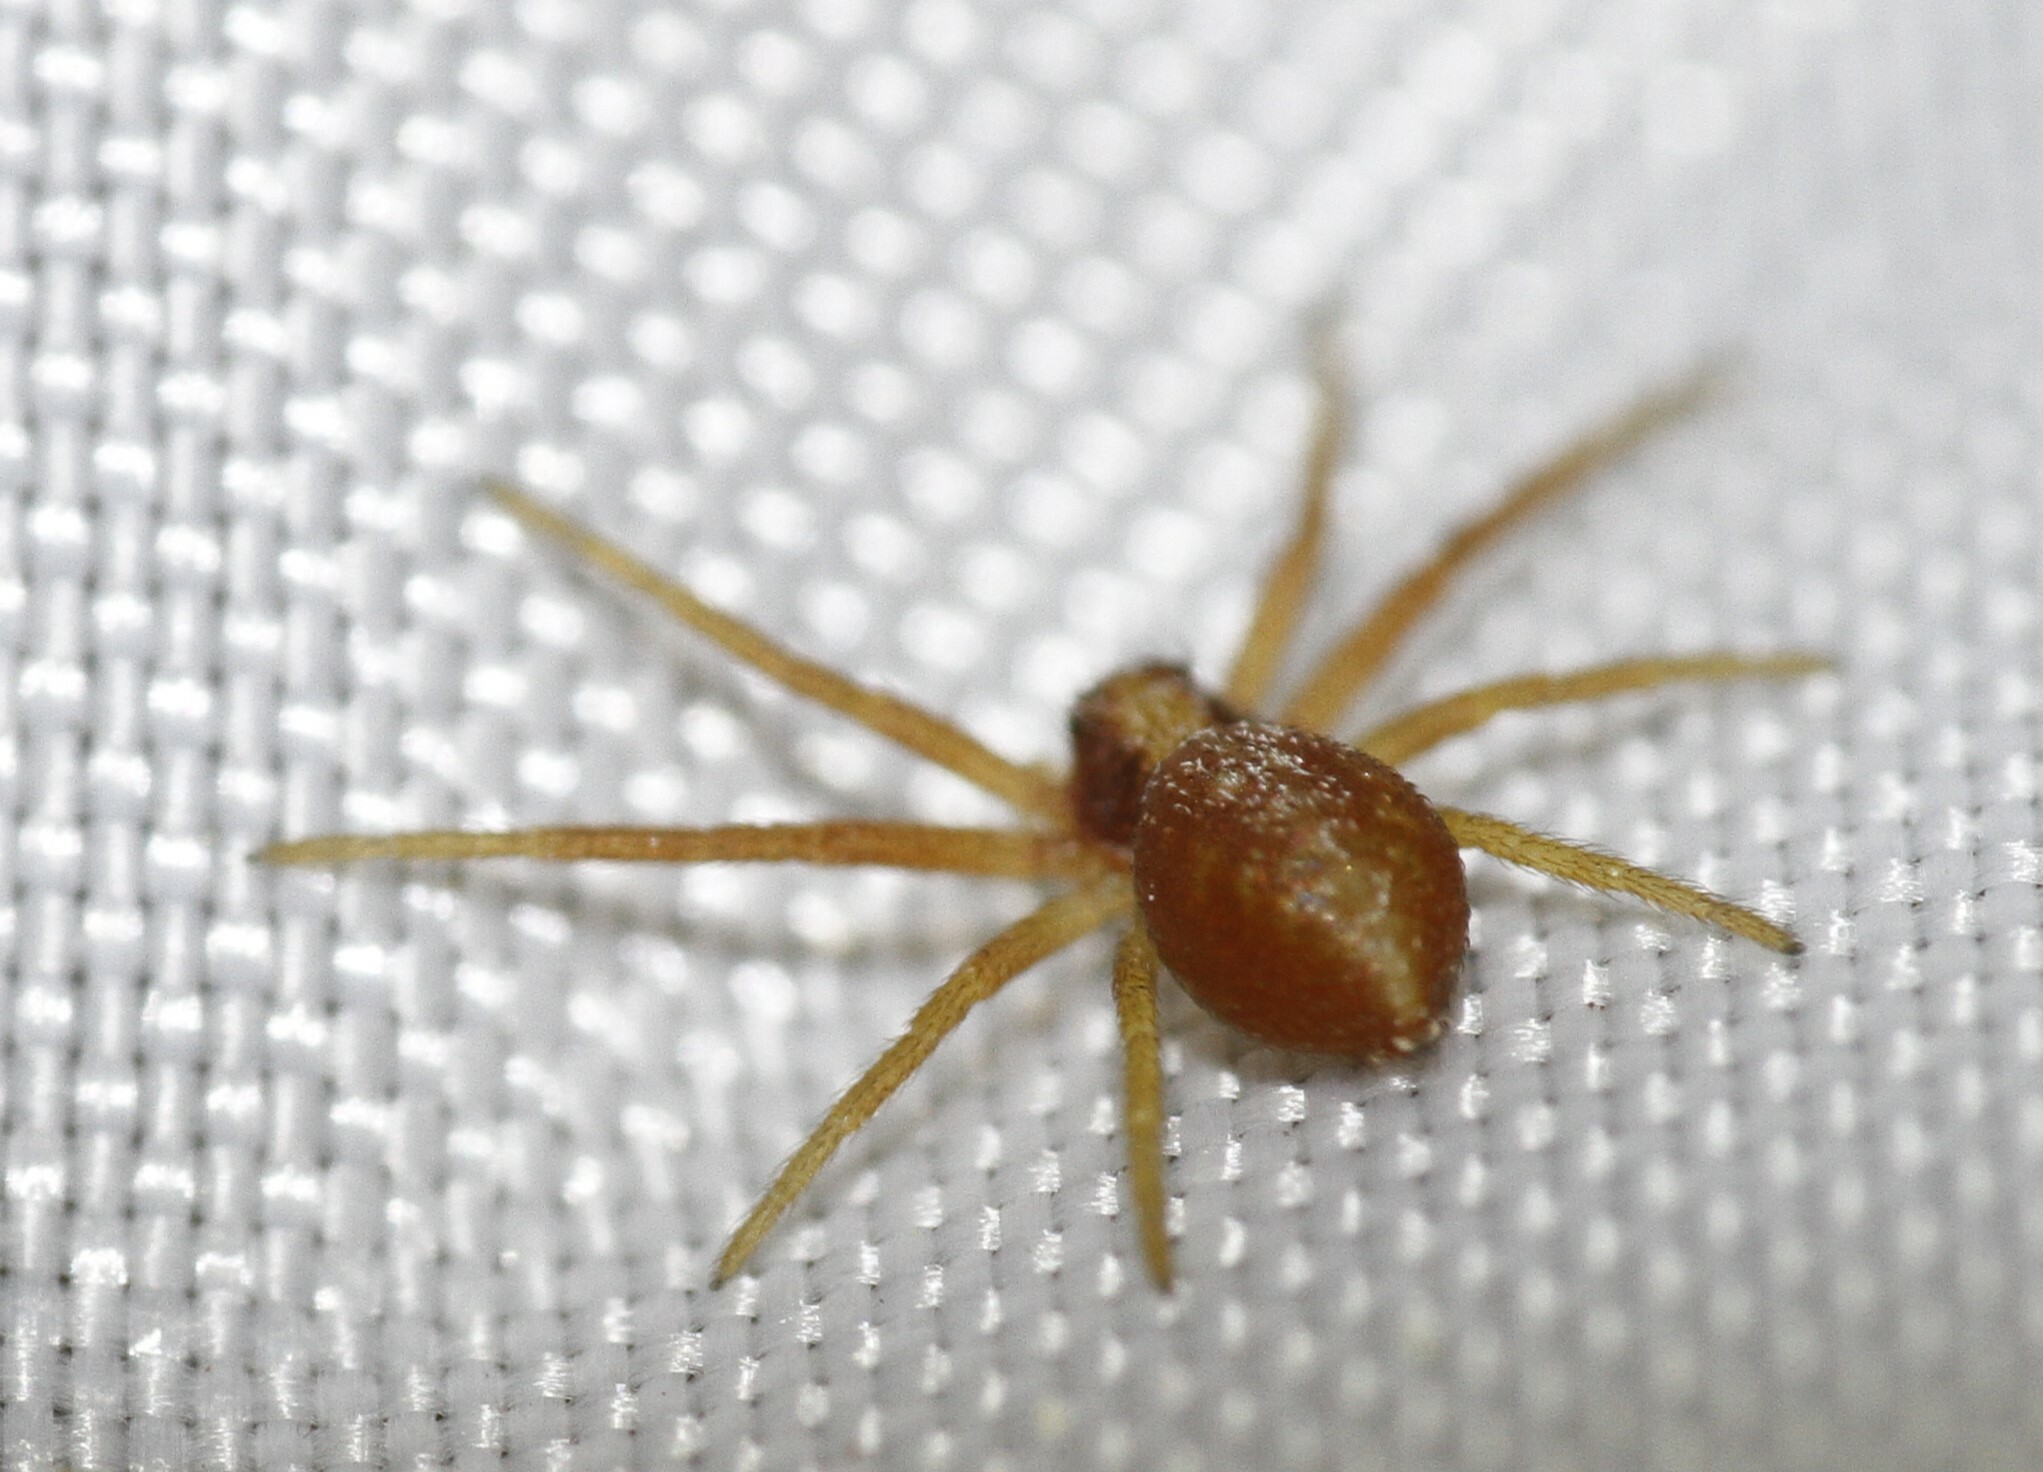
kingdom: Animalia
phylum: Arthropoda
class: Arachnida
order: Araneae
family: Philodromidae
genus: Philodromus
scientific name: Philodromus rufus
